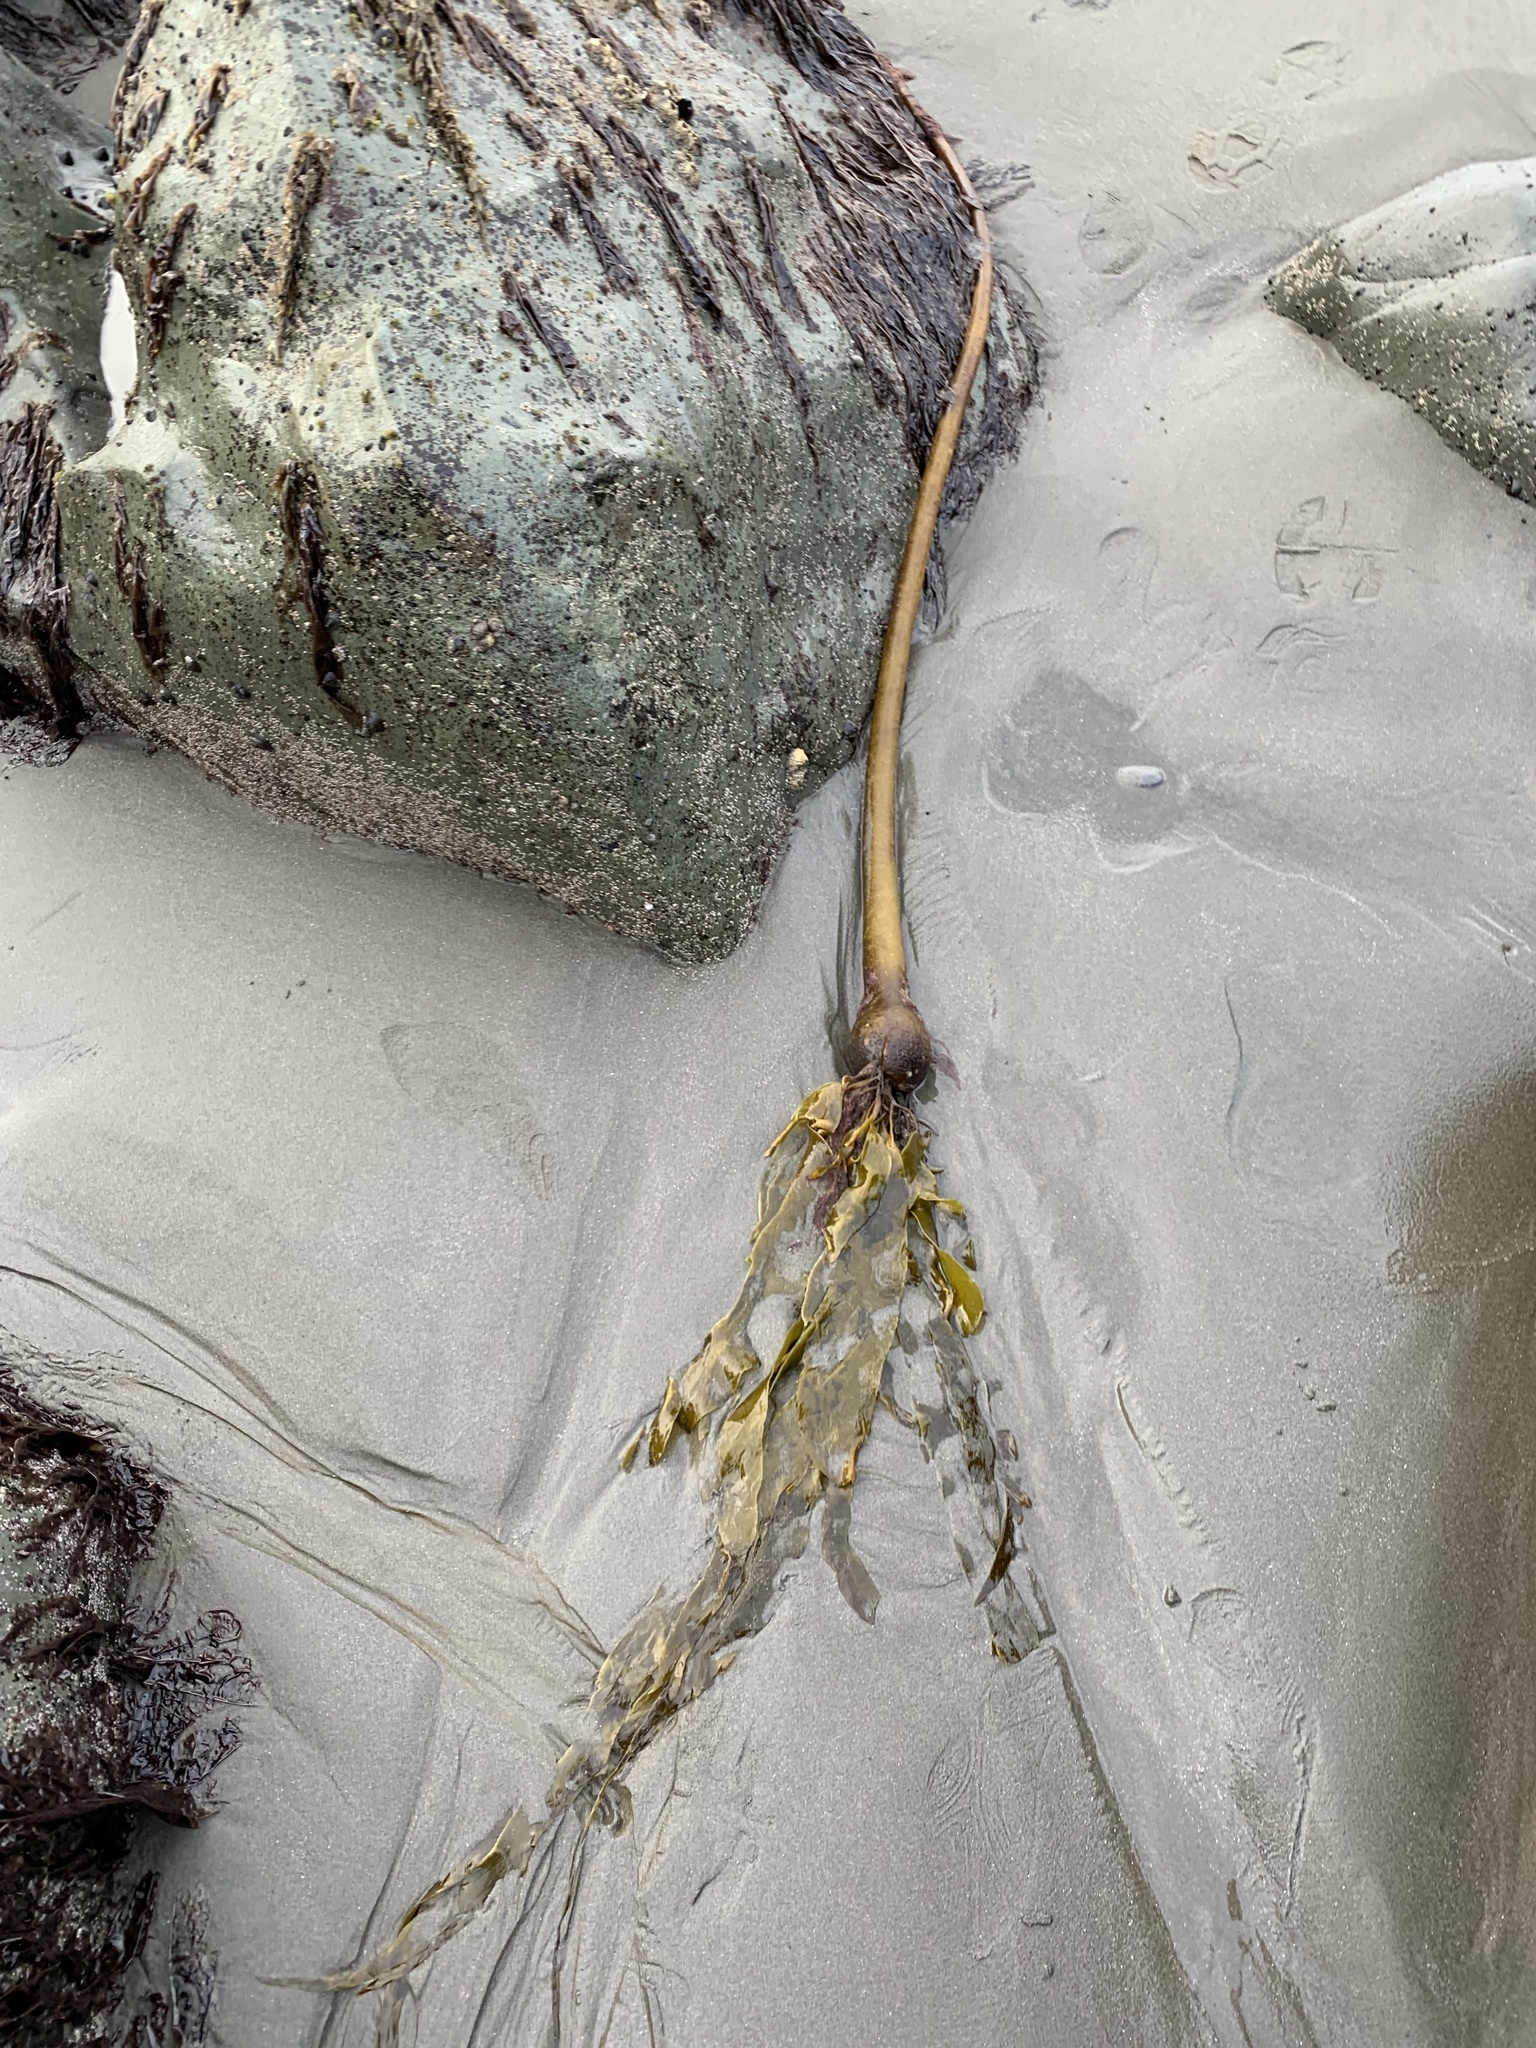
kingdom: Chromista
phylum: Ochrophyta
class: Phaeophyceae
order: Laminariales
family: Laminariaceae
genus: Nereocystis
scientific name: Nereocystis luetkeana
